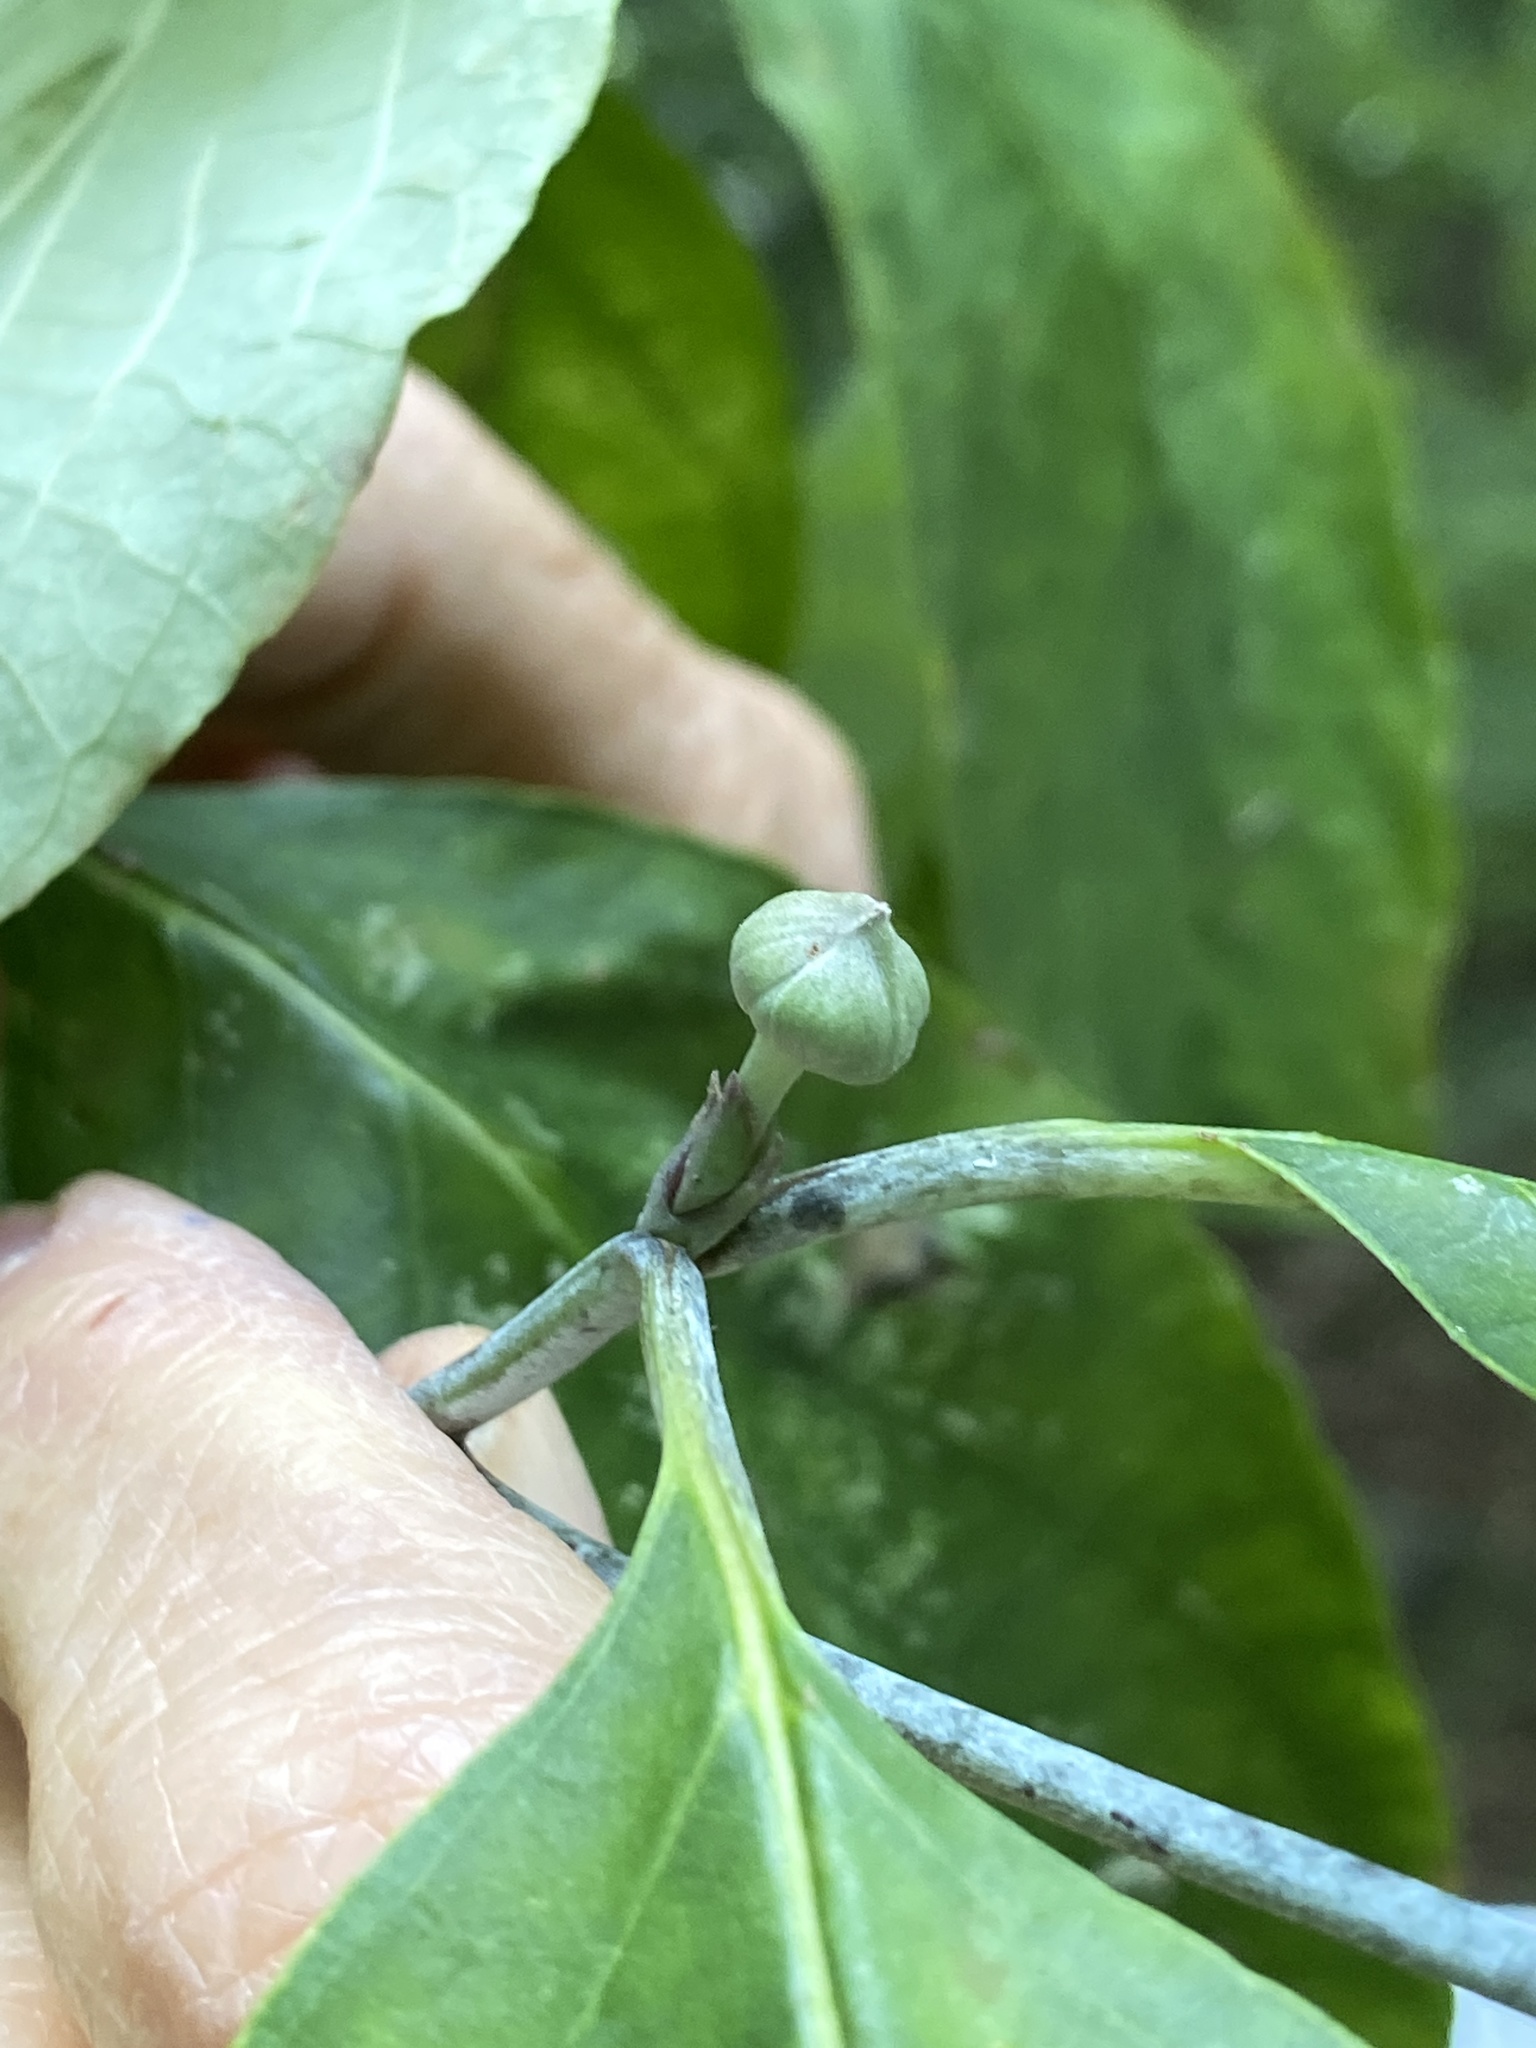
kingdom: Plantae
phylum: Tracheophyta
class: Magnoliopsida
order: Cornales
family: Cornaceae
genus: Cornus
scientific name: Cornus florida
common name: Flowering dogwood
